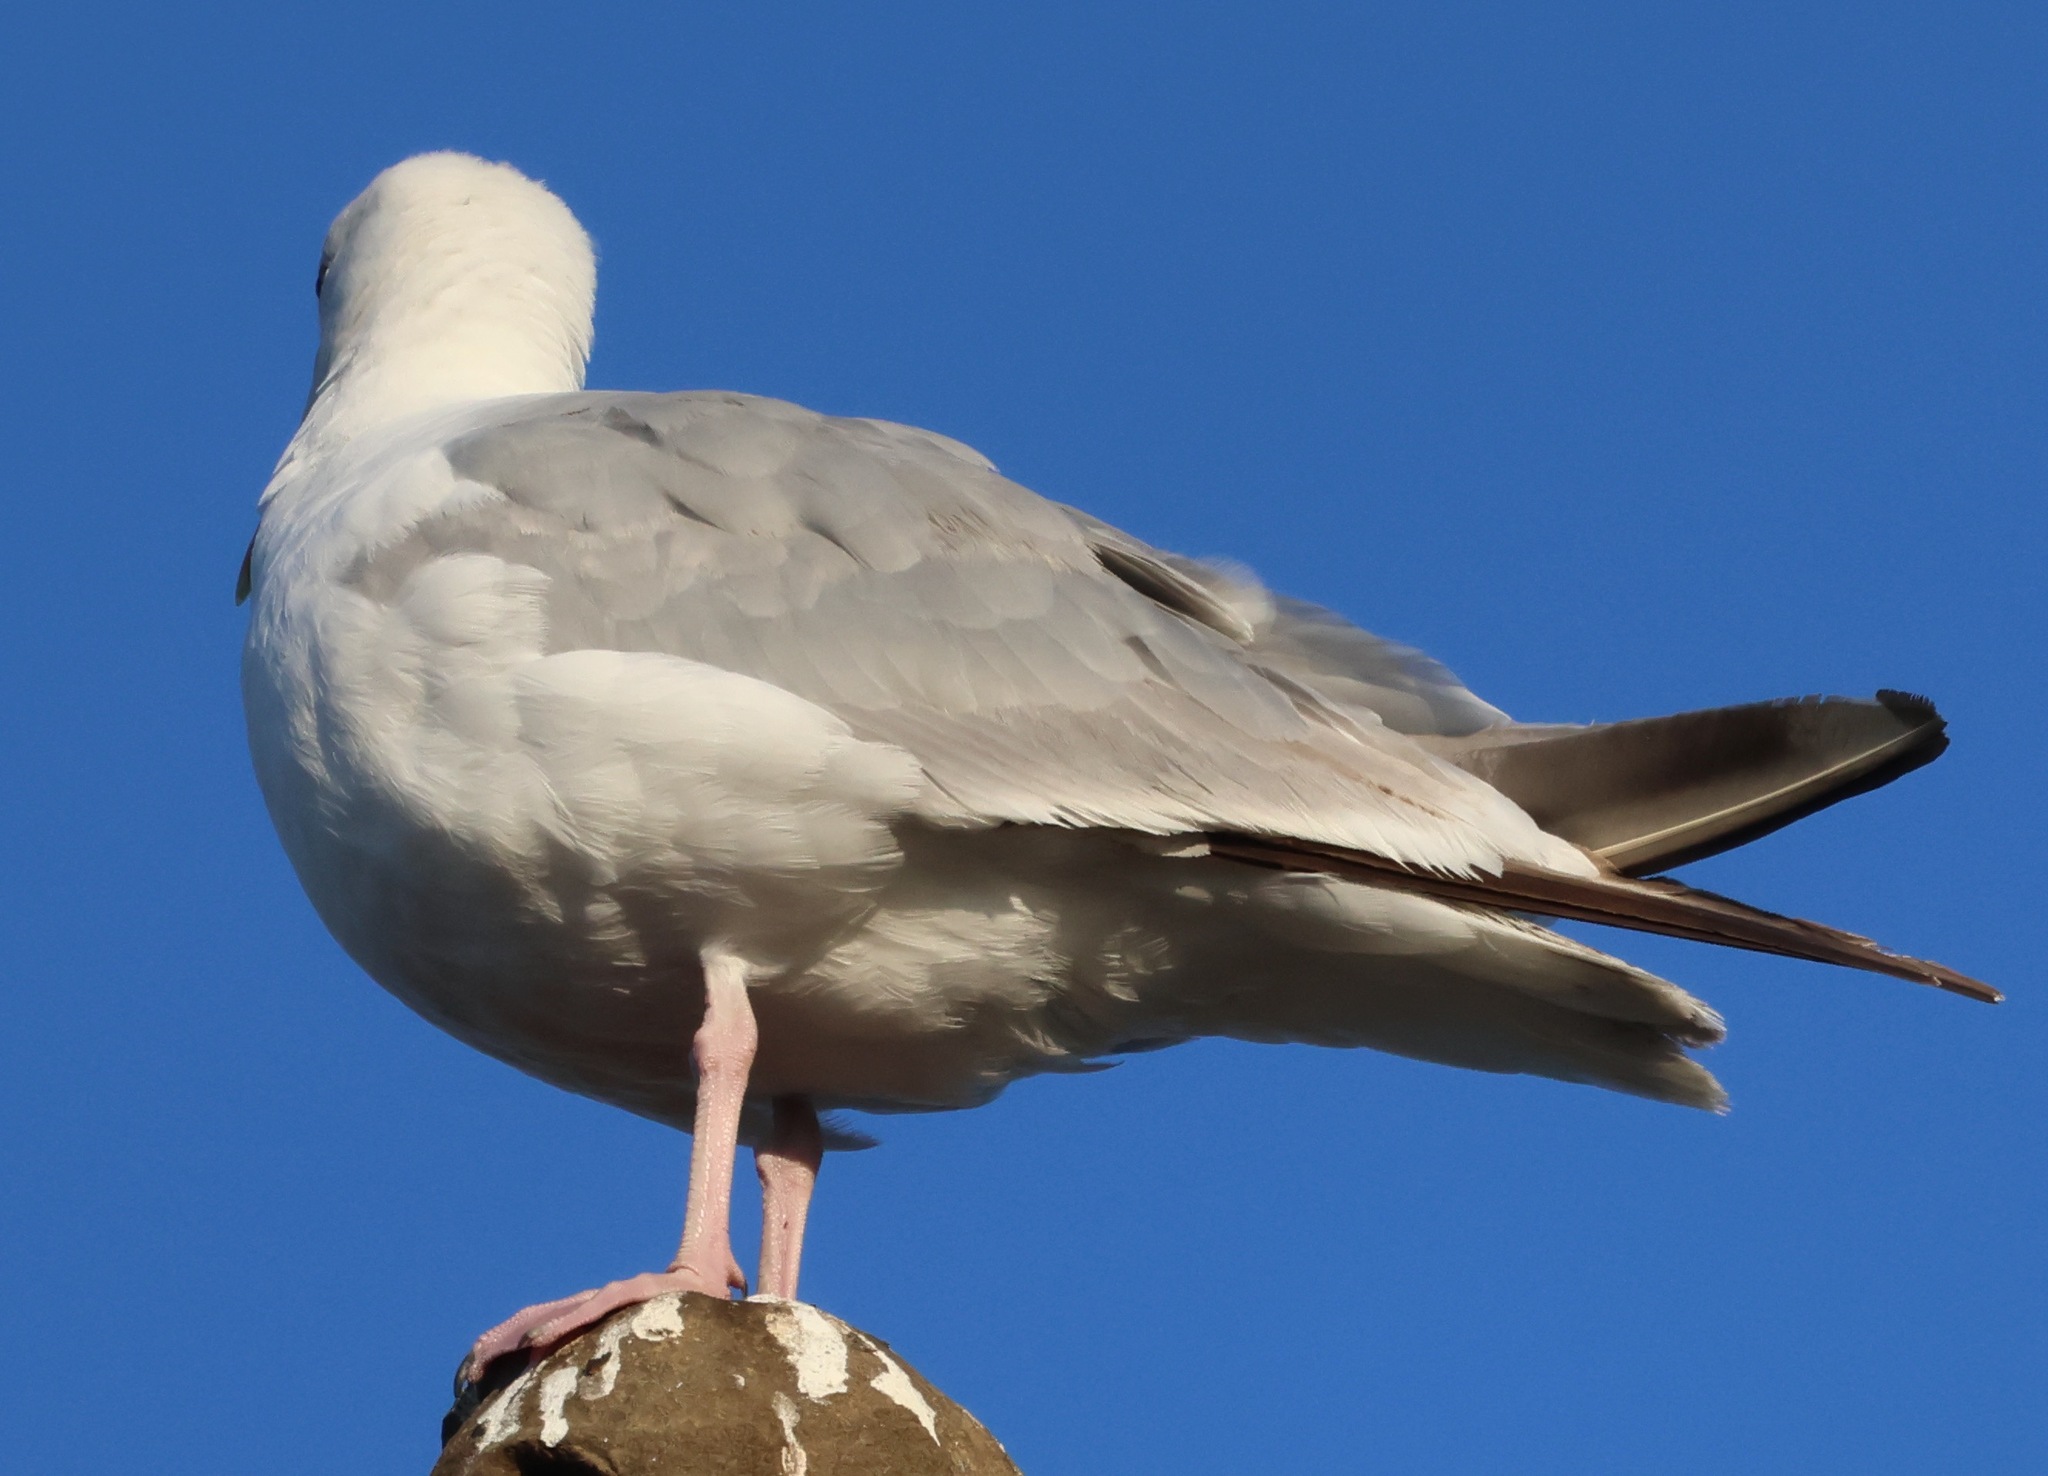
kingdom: Animalia
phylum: Chordata
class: Aves
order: Charadriiformes
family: Laridae
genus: Larus
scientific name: Larus argentatus
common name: Herring gull
